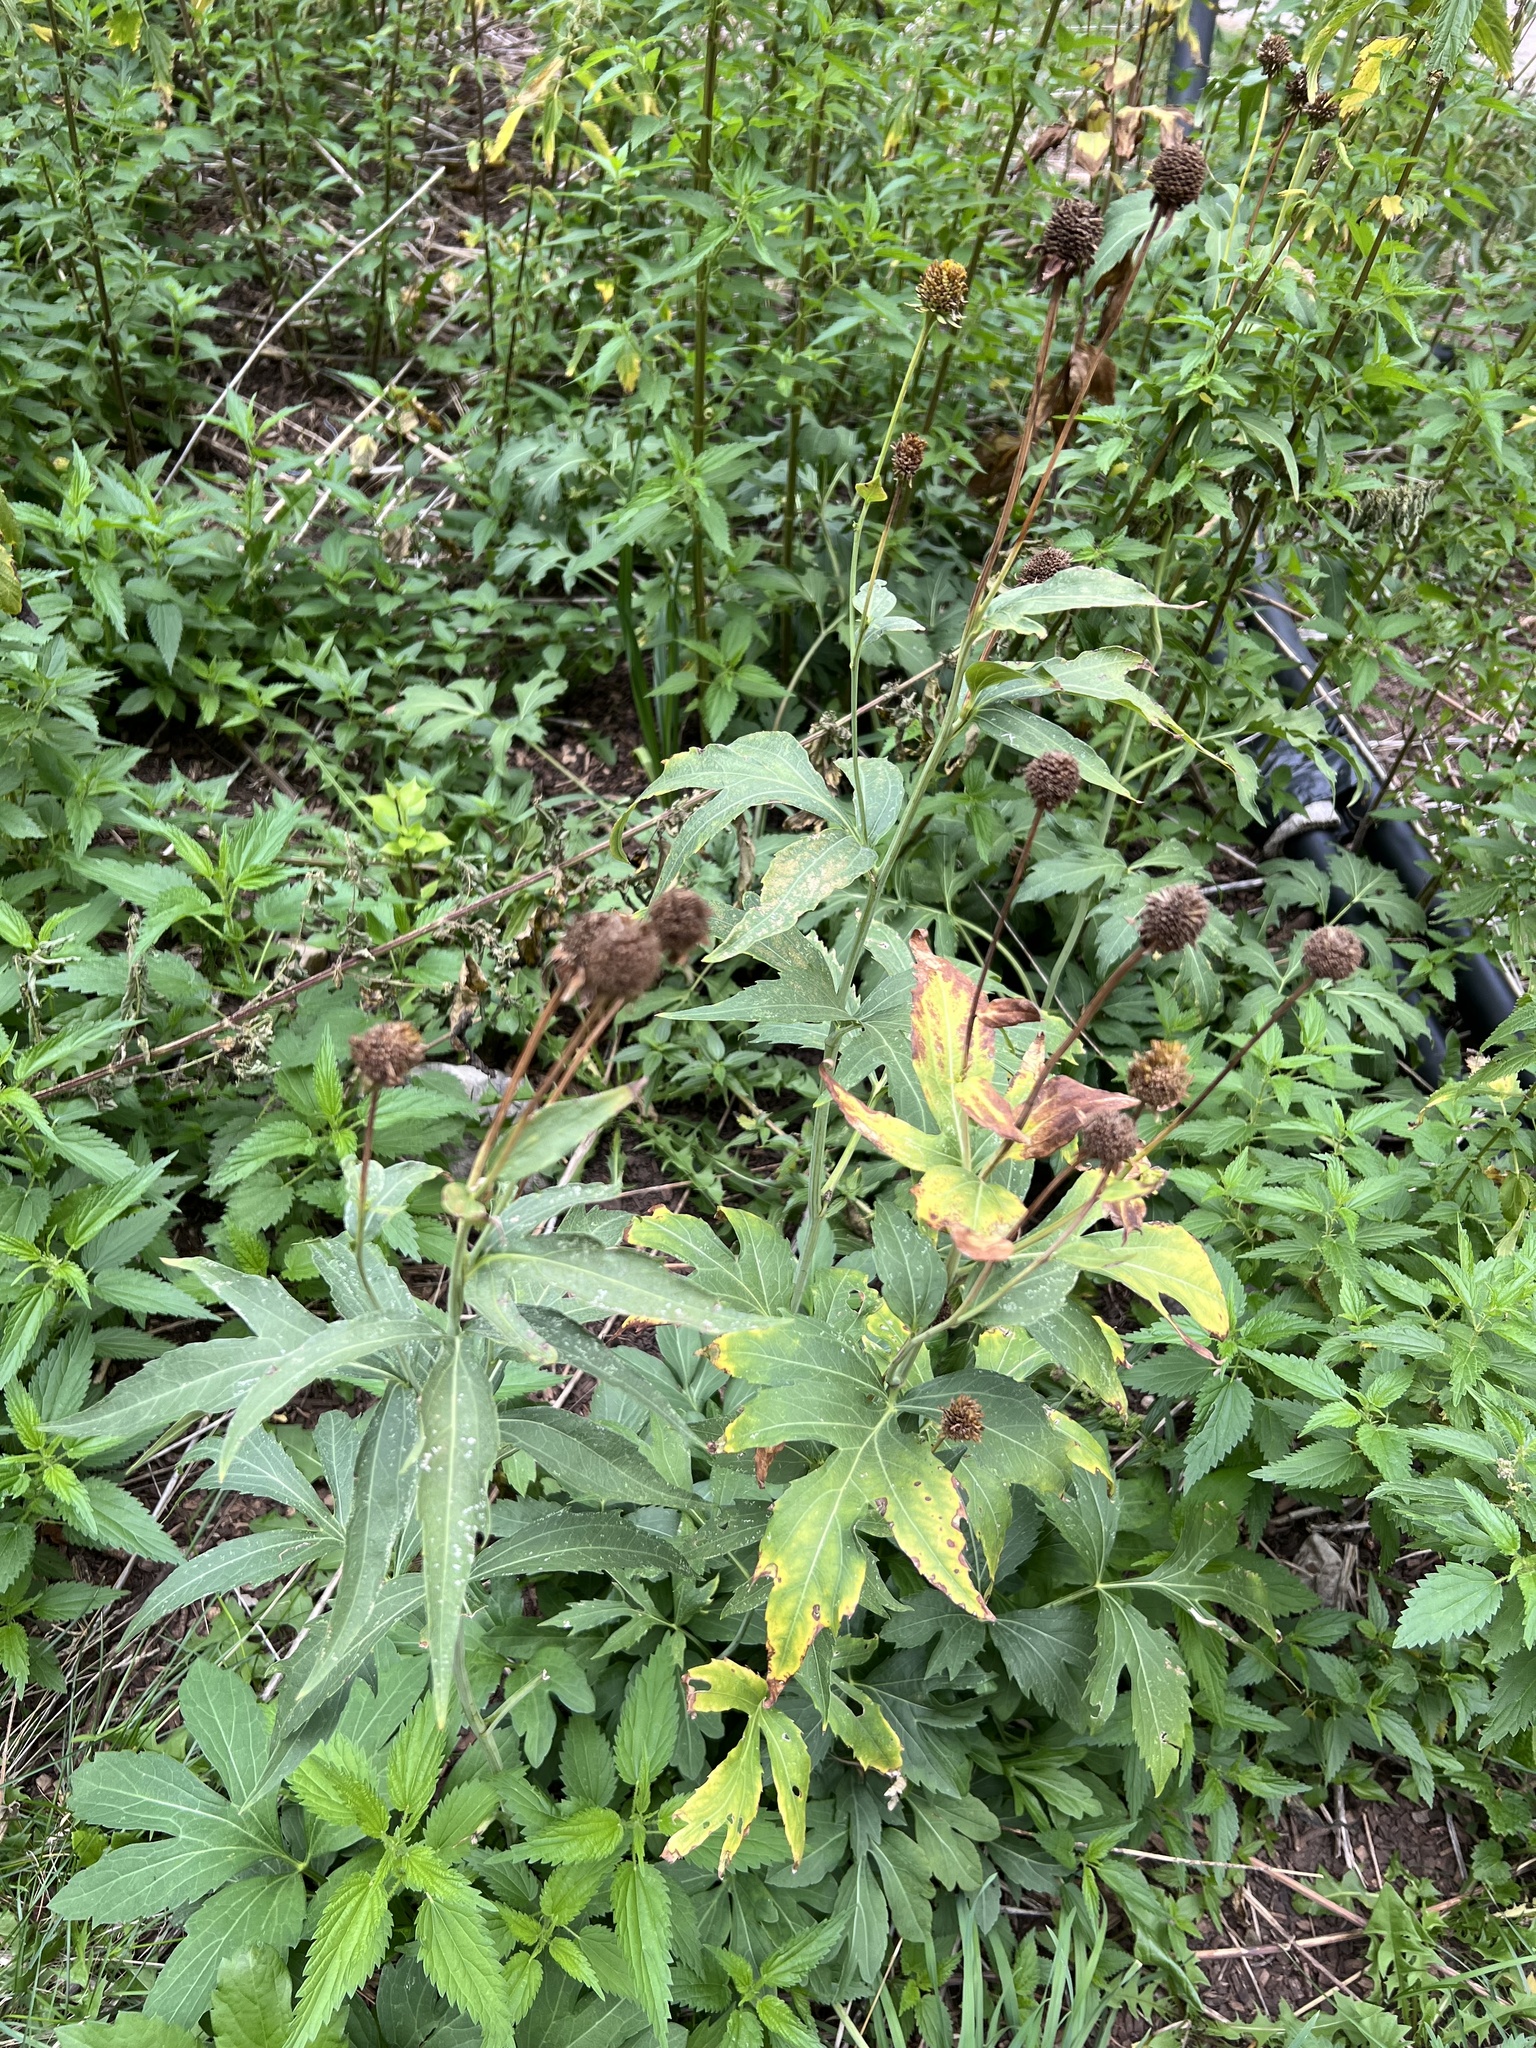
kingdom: Plantae
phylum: Tracheophyta
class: Magnoliopsida
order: Asterales
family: Asteraceae
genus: Rudbeckia
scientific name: Rudbeckia laciniata
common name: Coneflower
